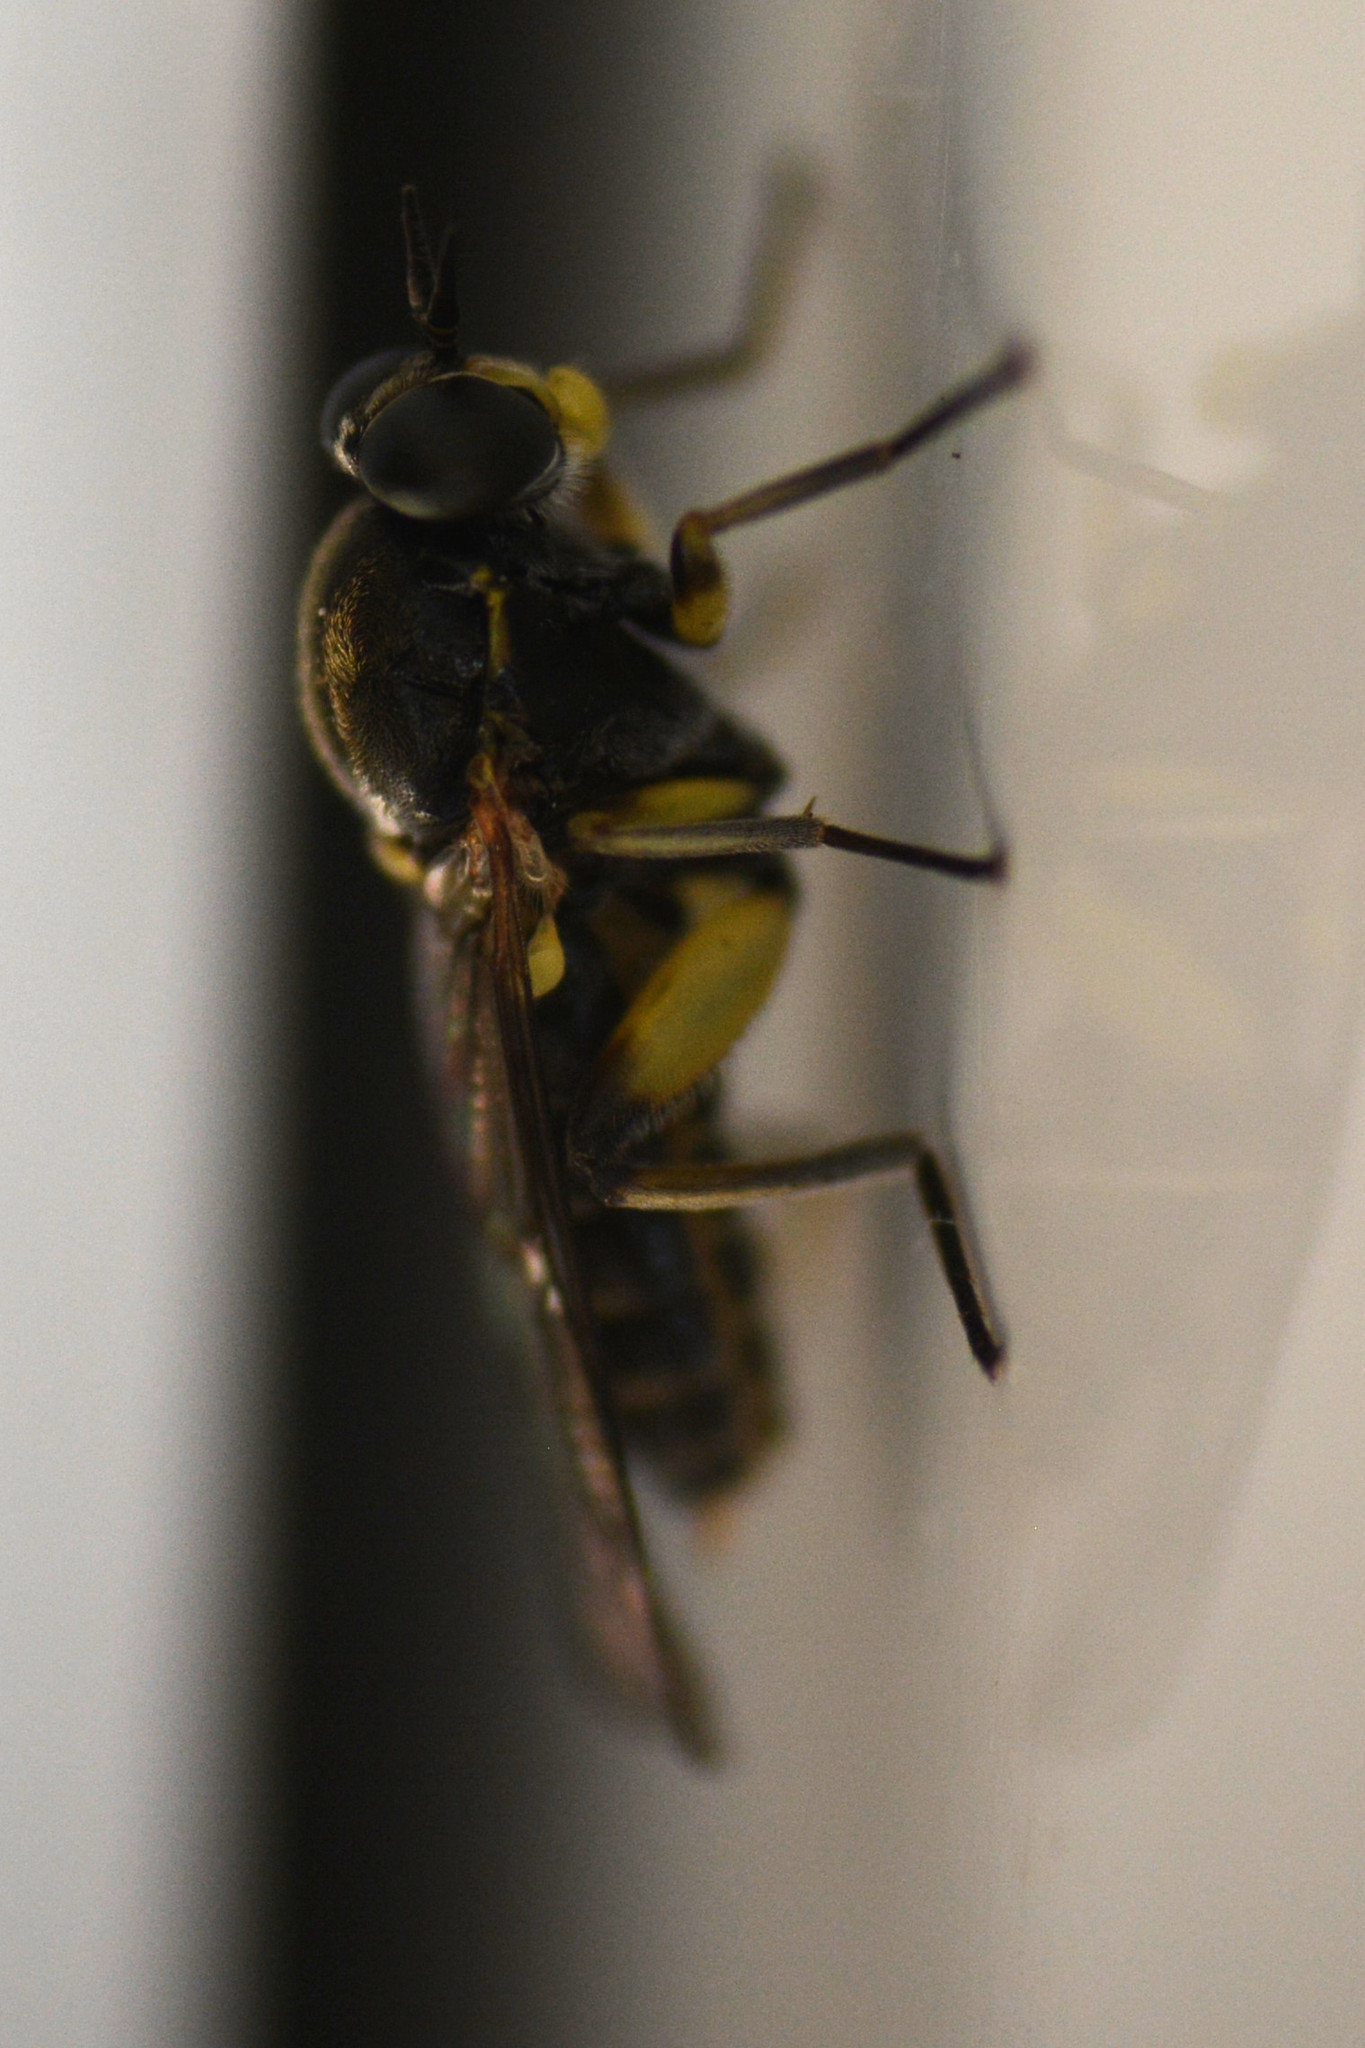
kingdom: Animalia
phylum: Arthropoda
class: Insecta
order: Diptera
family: Xylomyidae
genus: Solva
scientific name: Solva marginata
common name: Drab wood-soldierfly
